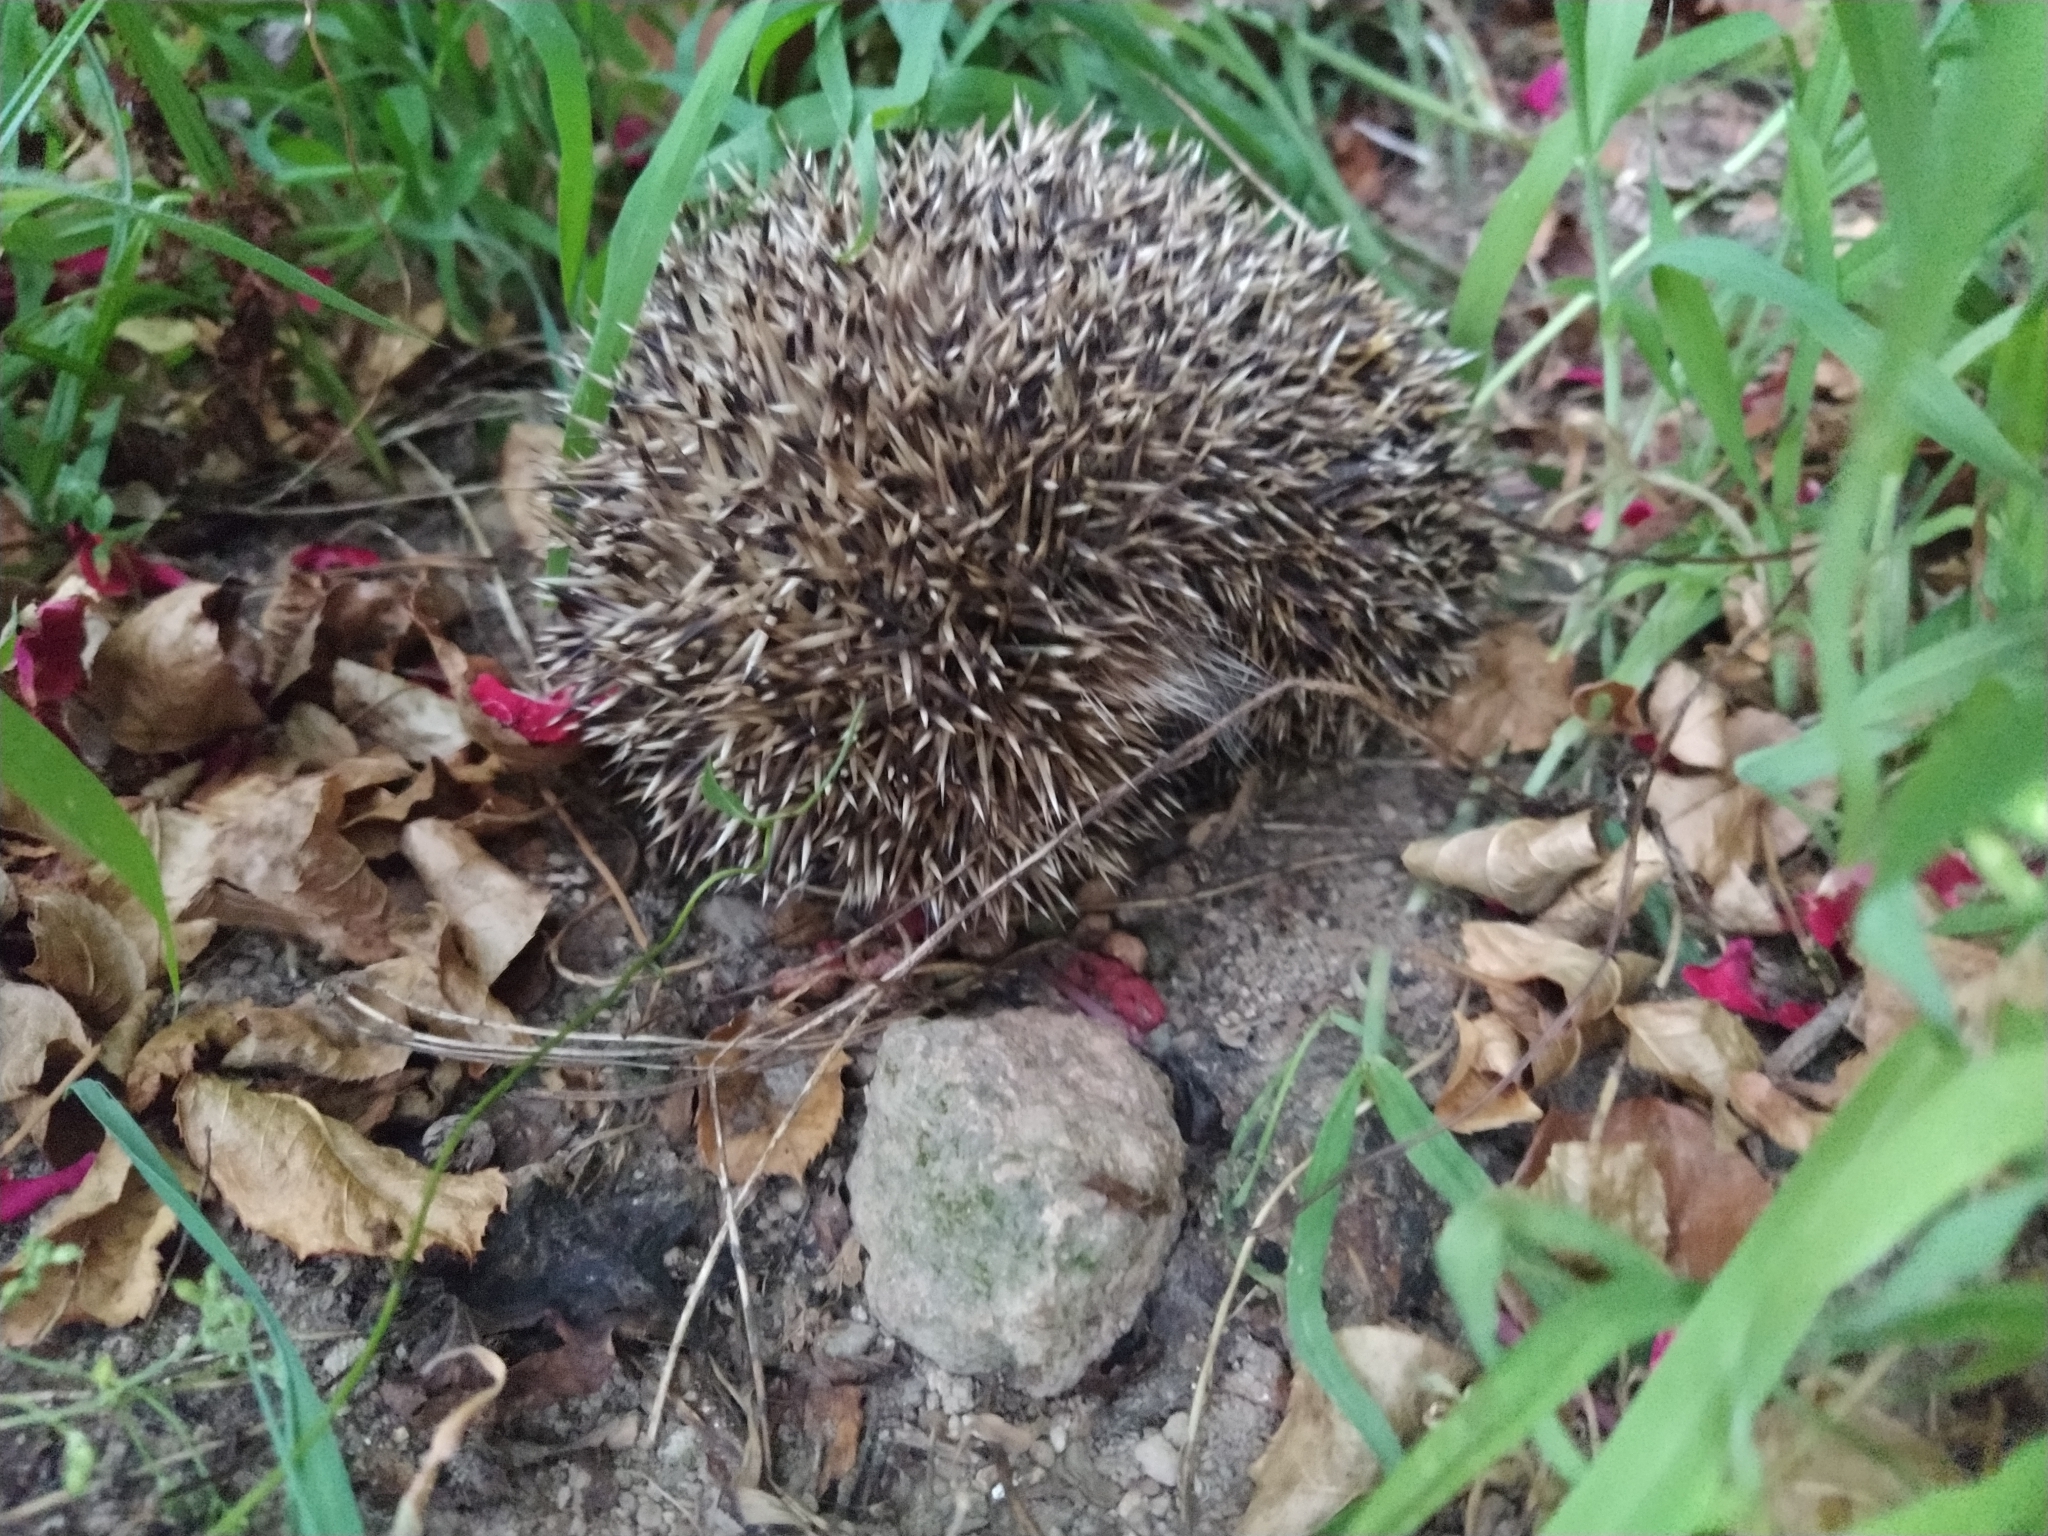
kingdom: Animalia
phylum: Chordata
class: Mammalia
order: Erinaceomorpha
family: Erinaceidae
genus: Erinaceus
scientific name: Erinaceus europaeus
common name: West european hedgehog
